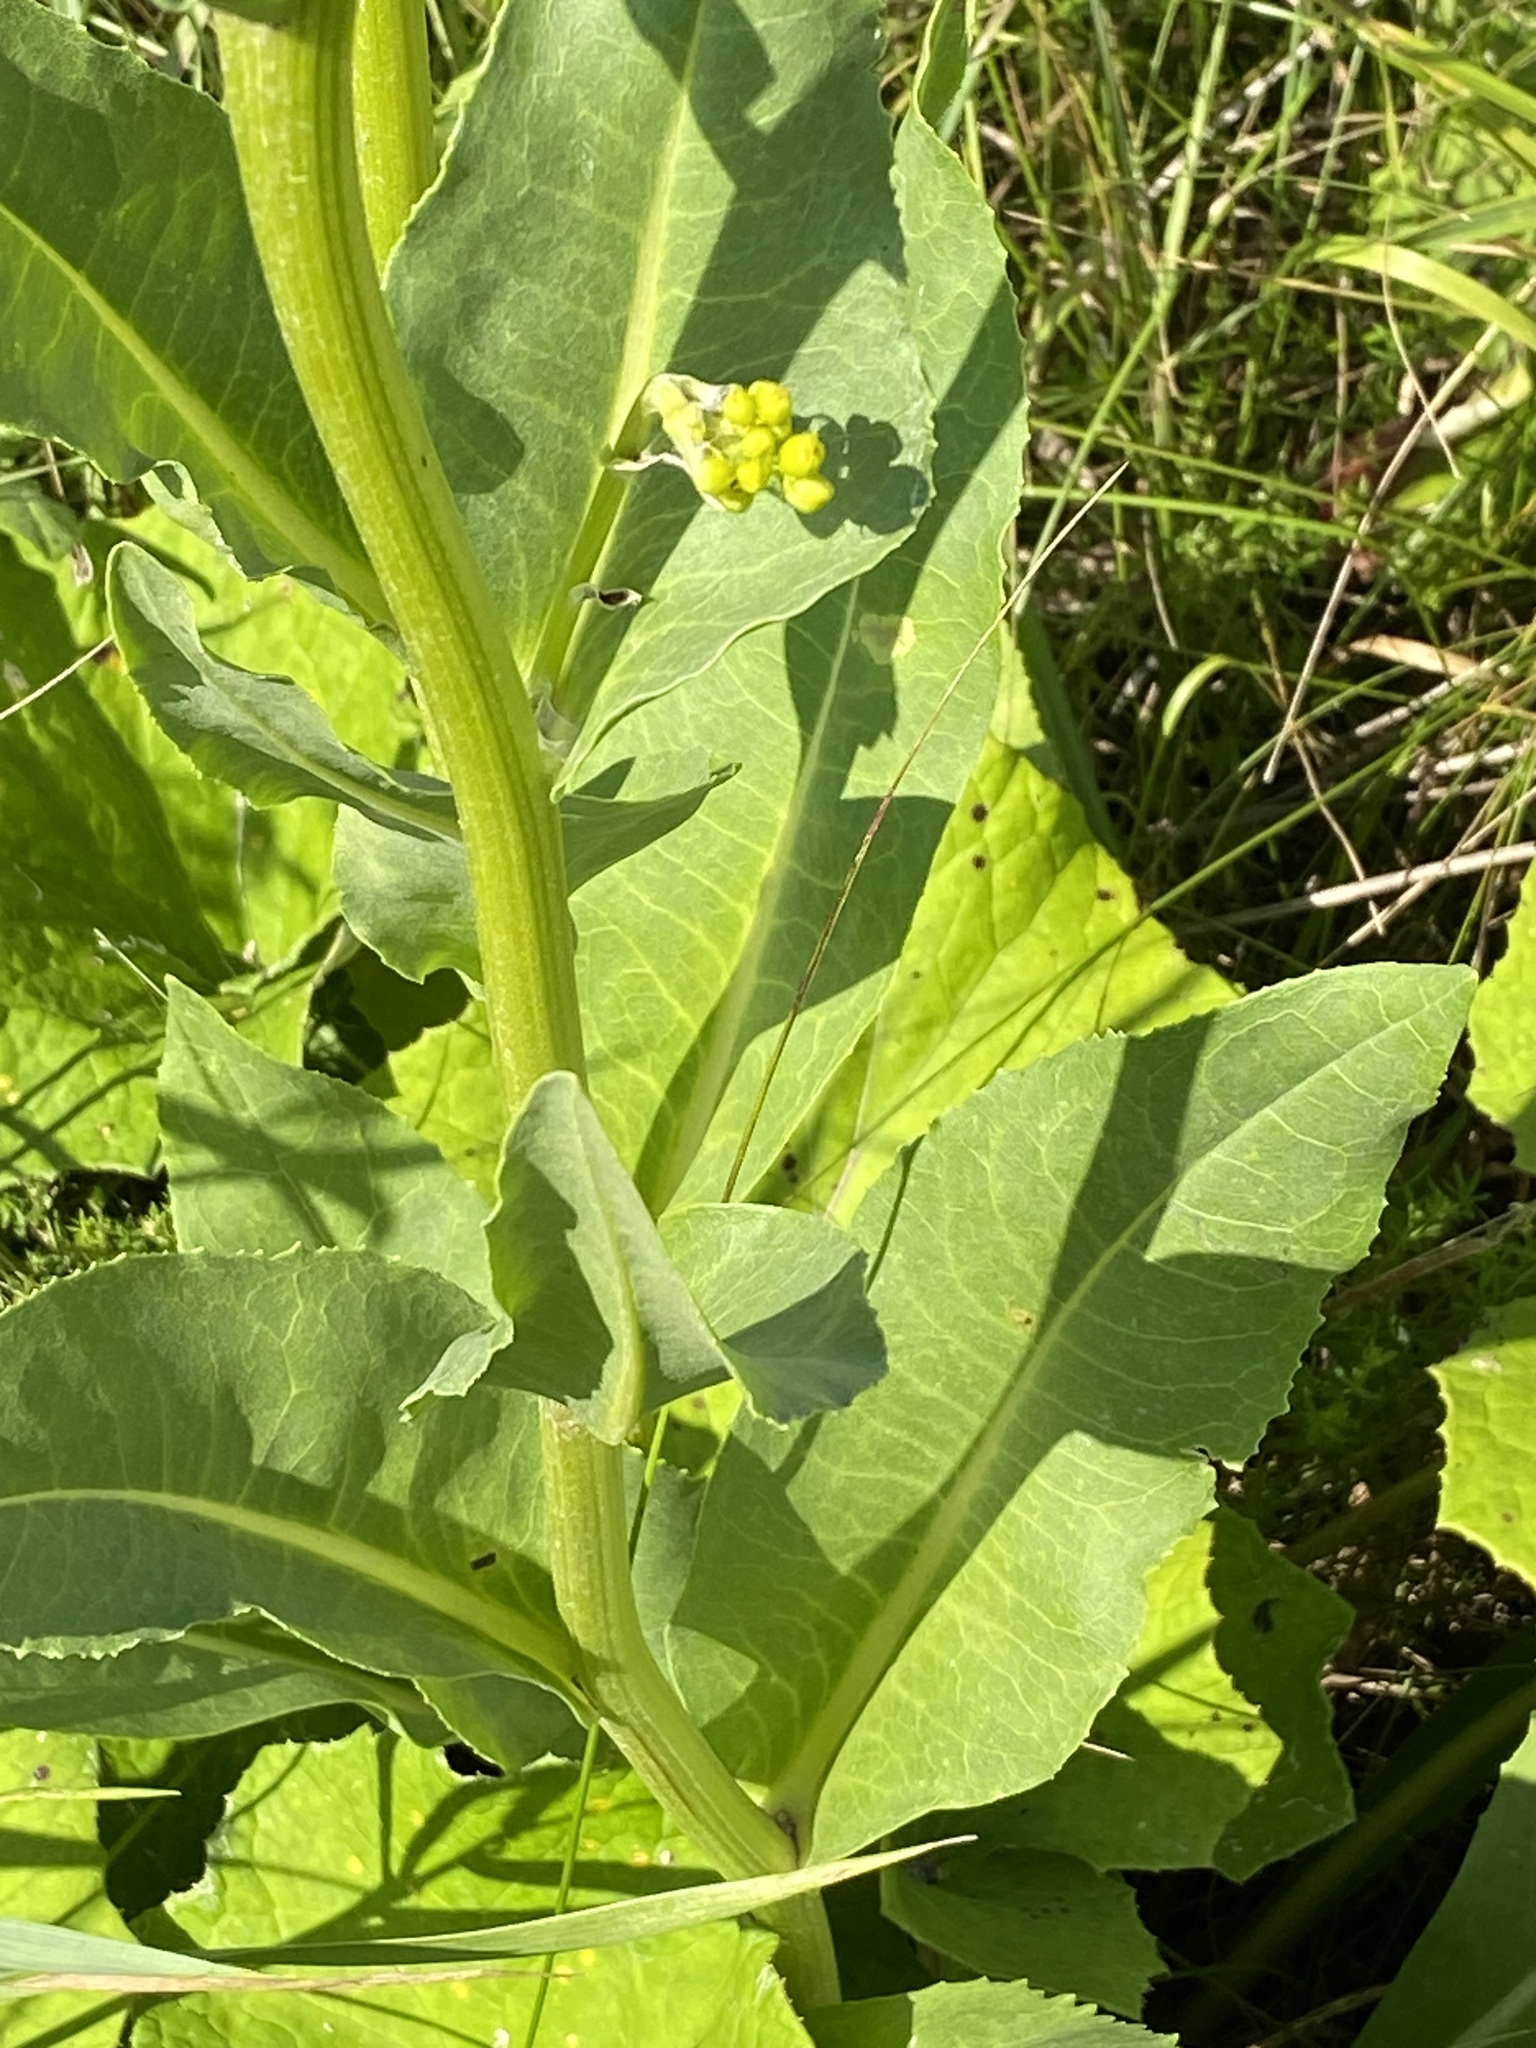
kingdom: Plantae
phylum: Tracheophyta
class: Magnoliopsida
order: Asterales
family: Asteraceae
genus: Senecio
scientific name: Senecio doria
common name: Golden ragwort
